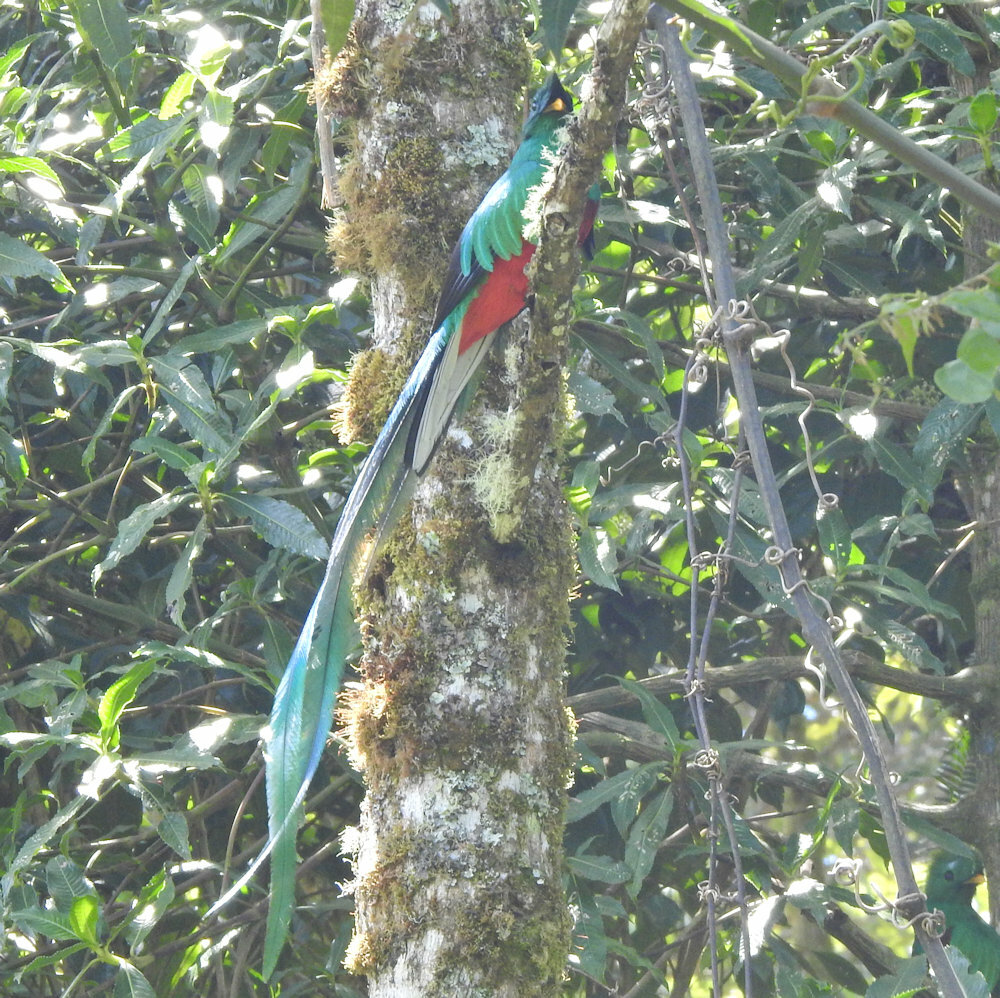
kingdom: Animalia
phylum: Chordata
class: Aves
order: Trogoniformes
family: Trogonidae
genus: Pharomachrus
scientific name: Pharomachrus mocinno
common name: Resplendent quetzal
